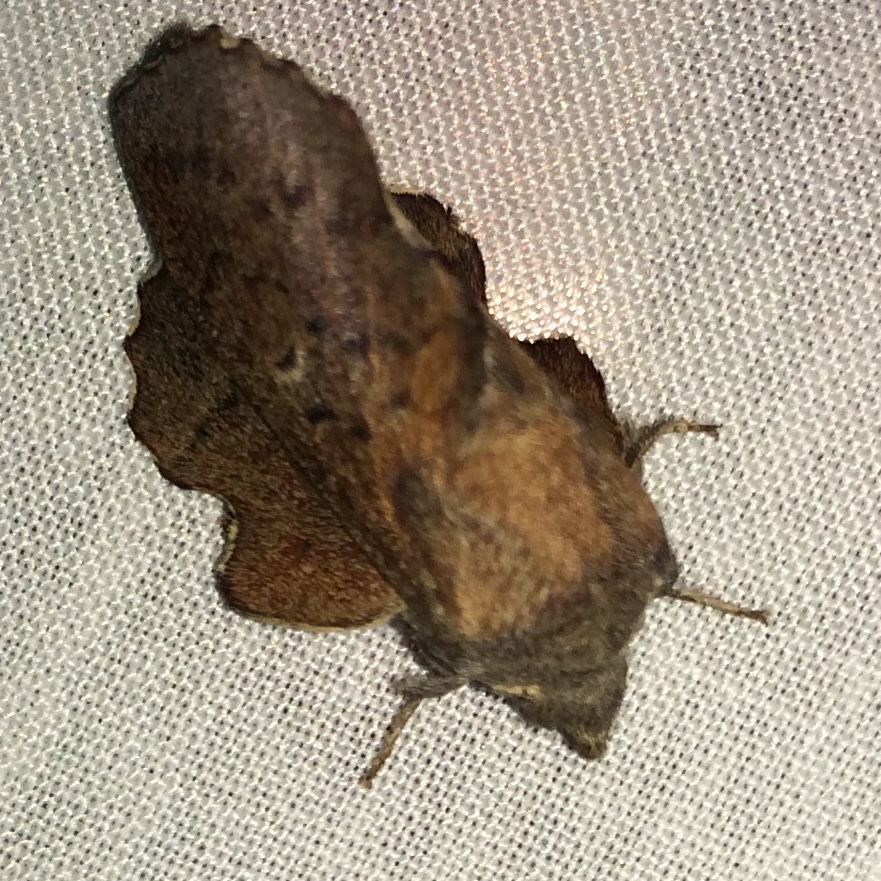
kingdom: Animalia
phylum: Arthropoda
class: Insecta
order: Lepidoptera
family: Lasiocampidae
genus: Phyllodesma
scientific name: Phyllodesma americana
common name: American lappet moth
